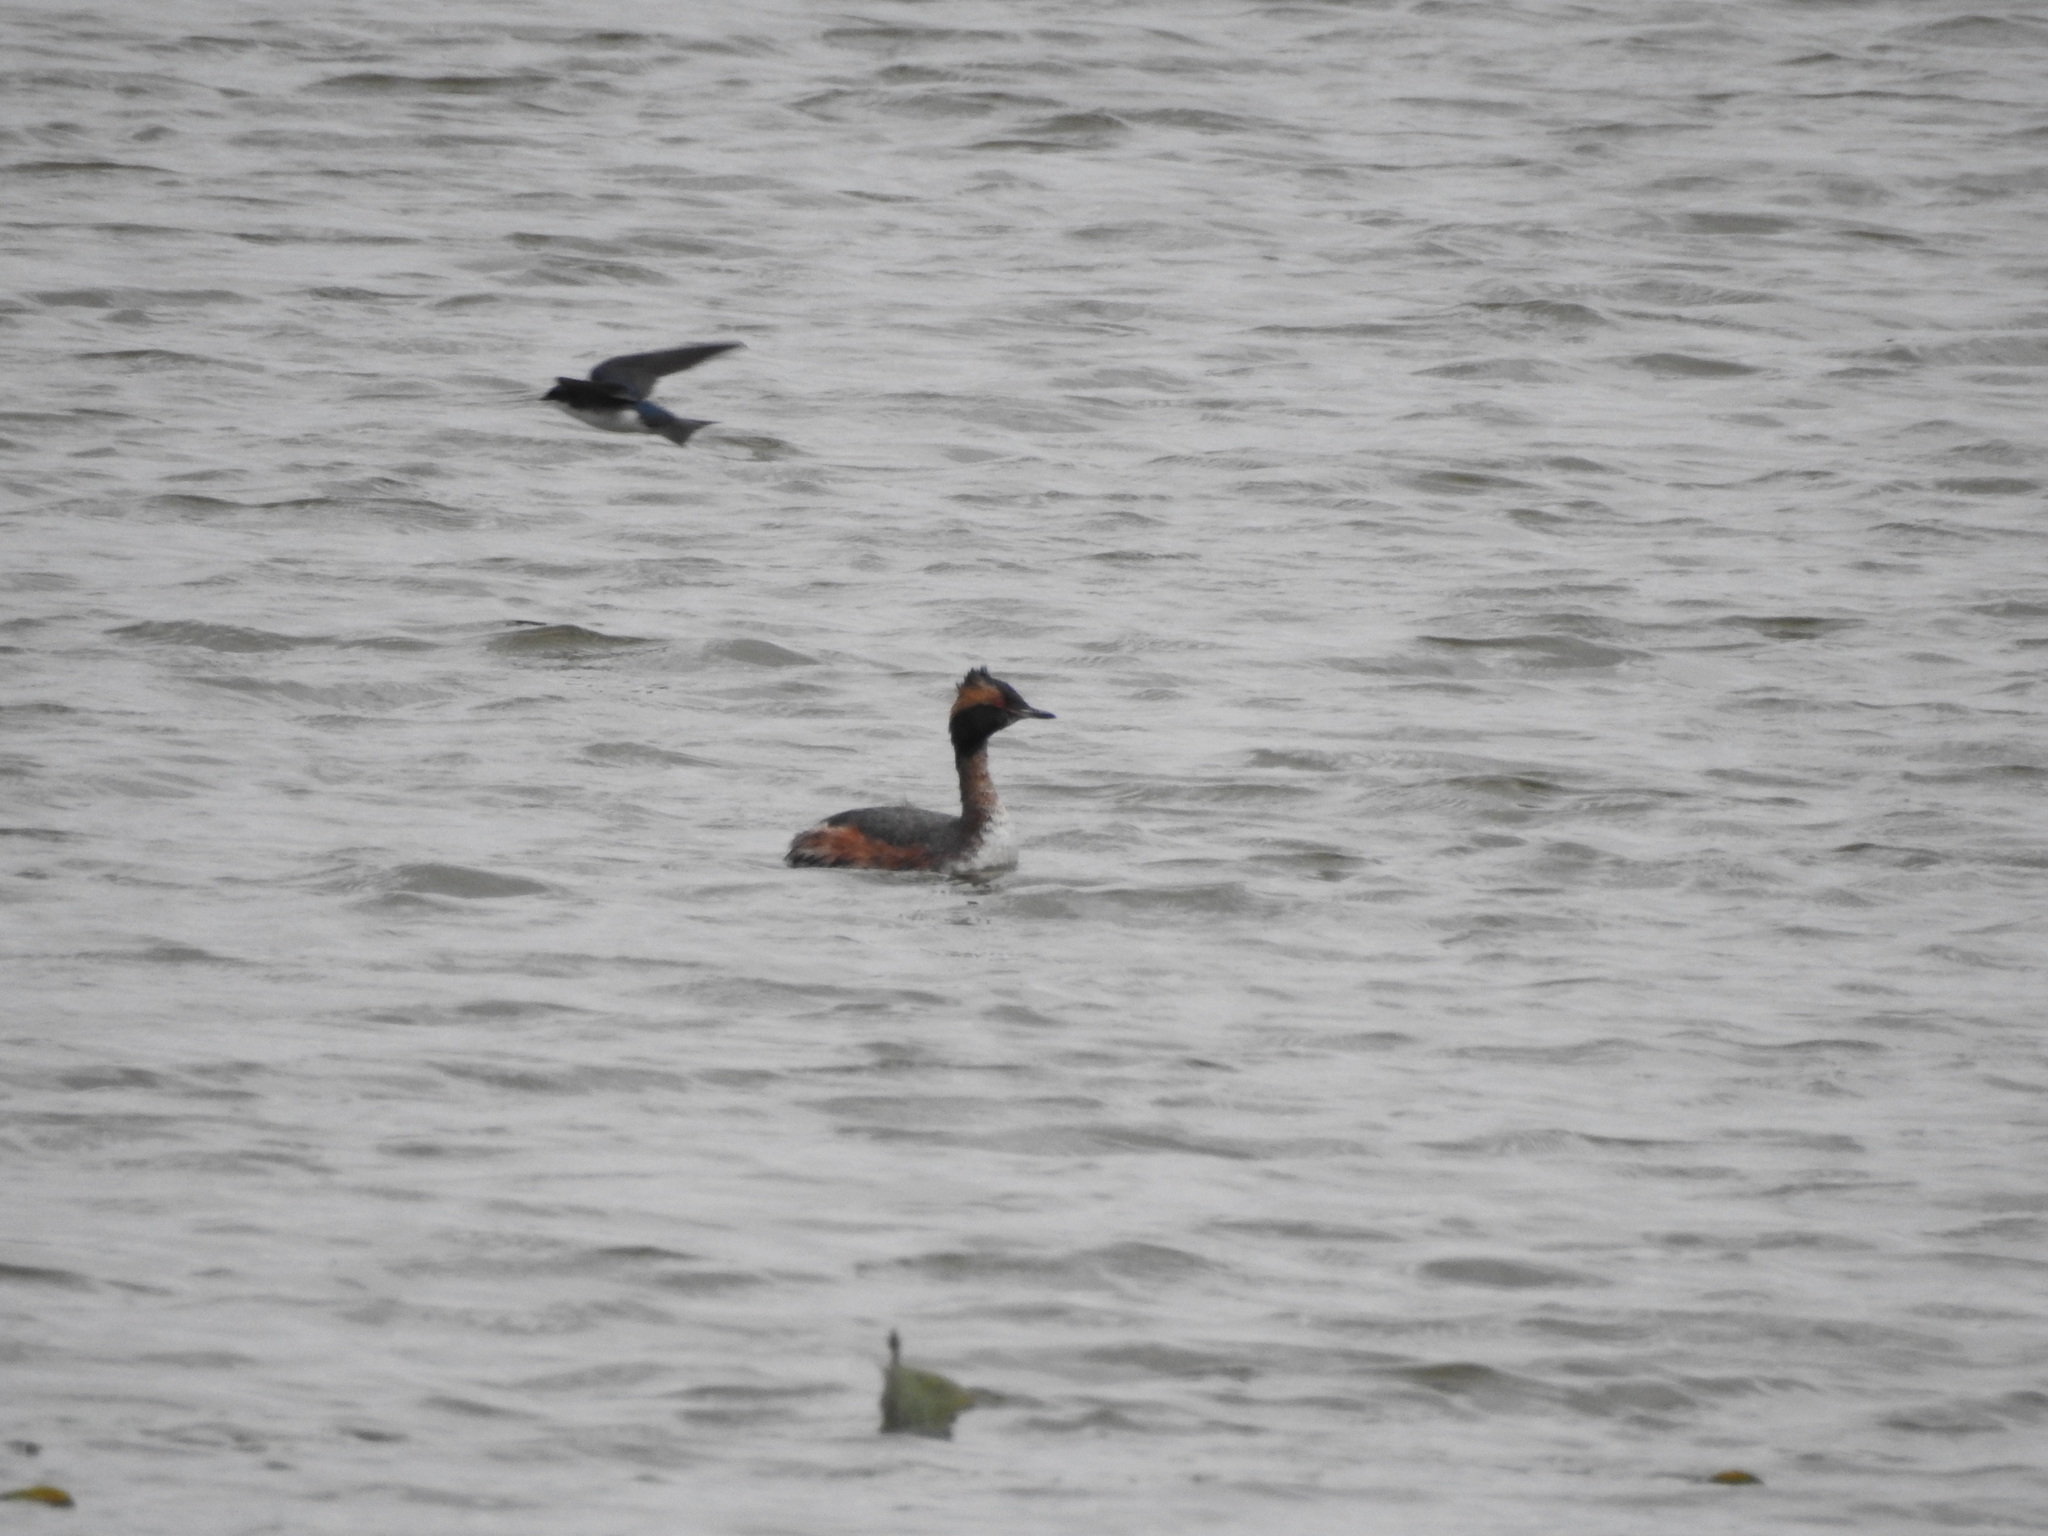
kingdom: Animalia
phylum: Chordata
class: Aves
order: Podicipediformes
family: Podicipedidae
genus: Podiceps
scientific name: Podiceps auritus
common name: Horned grebe
